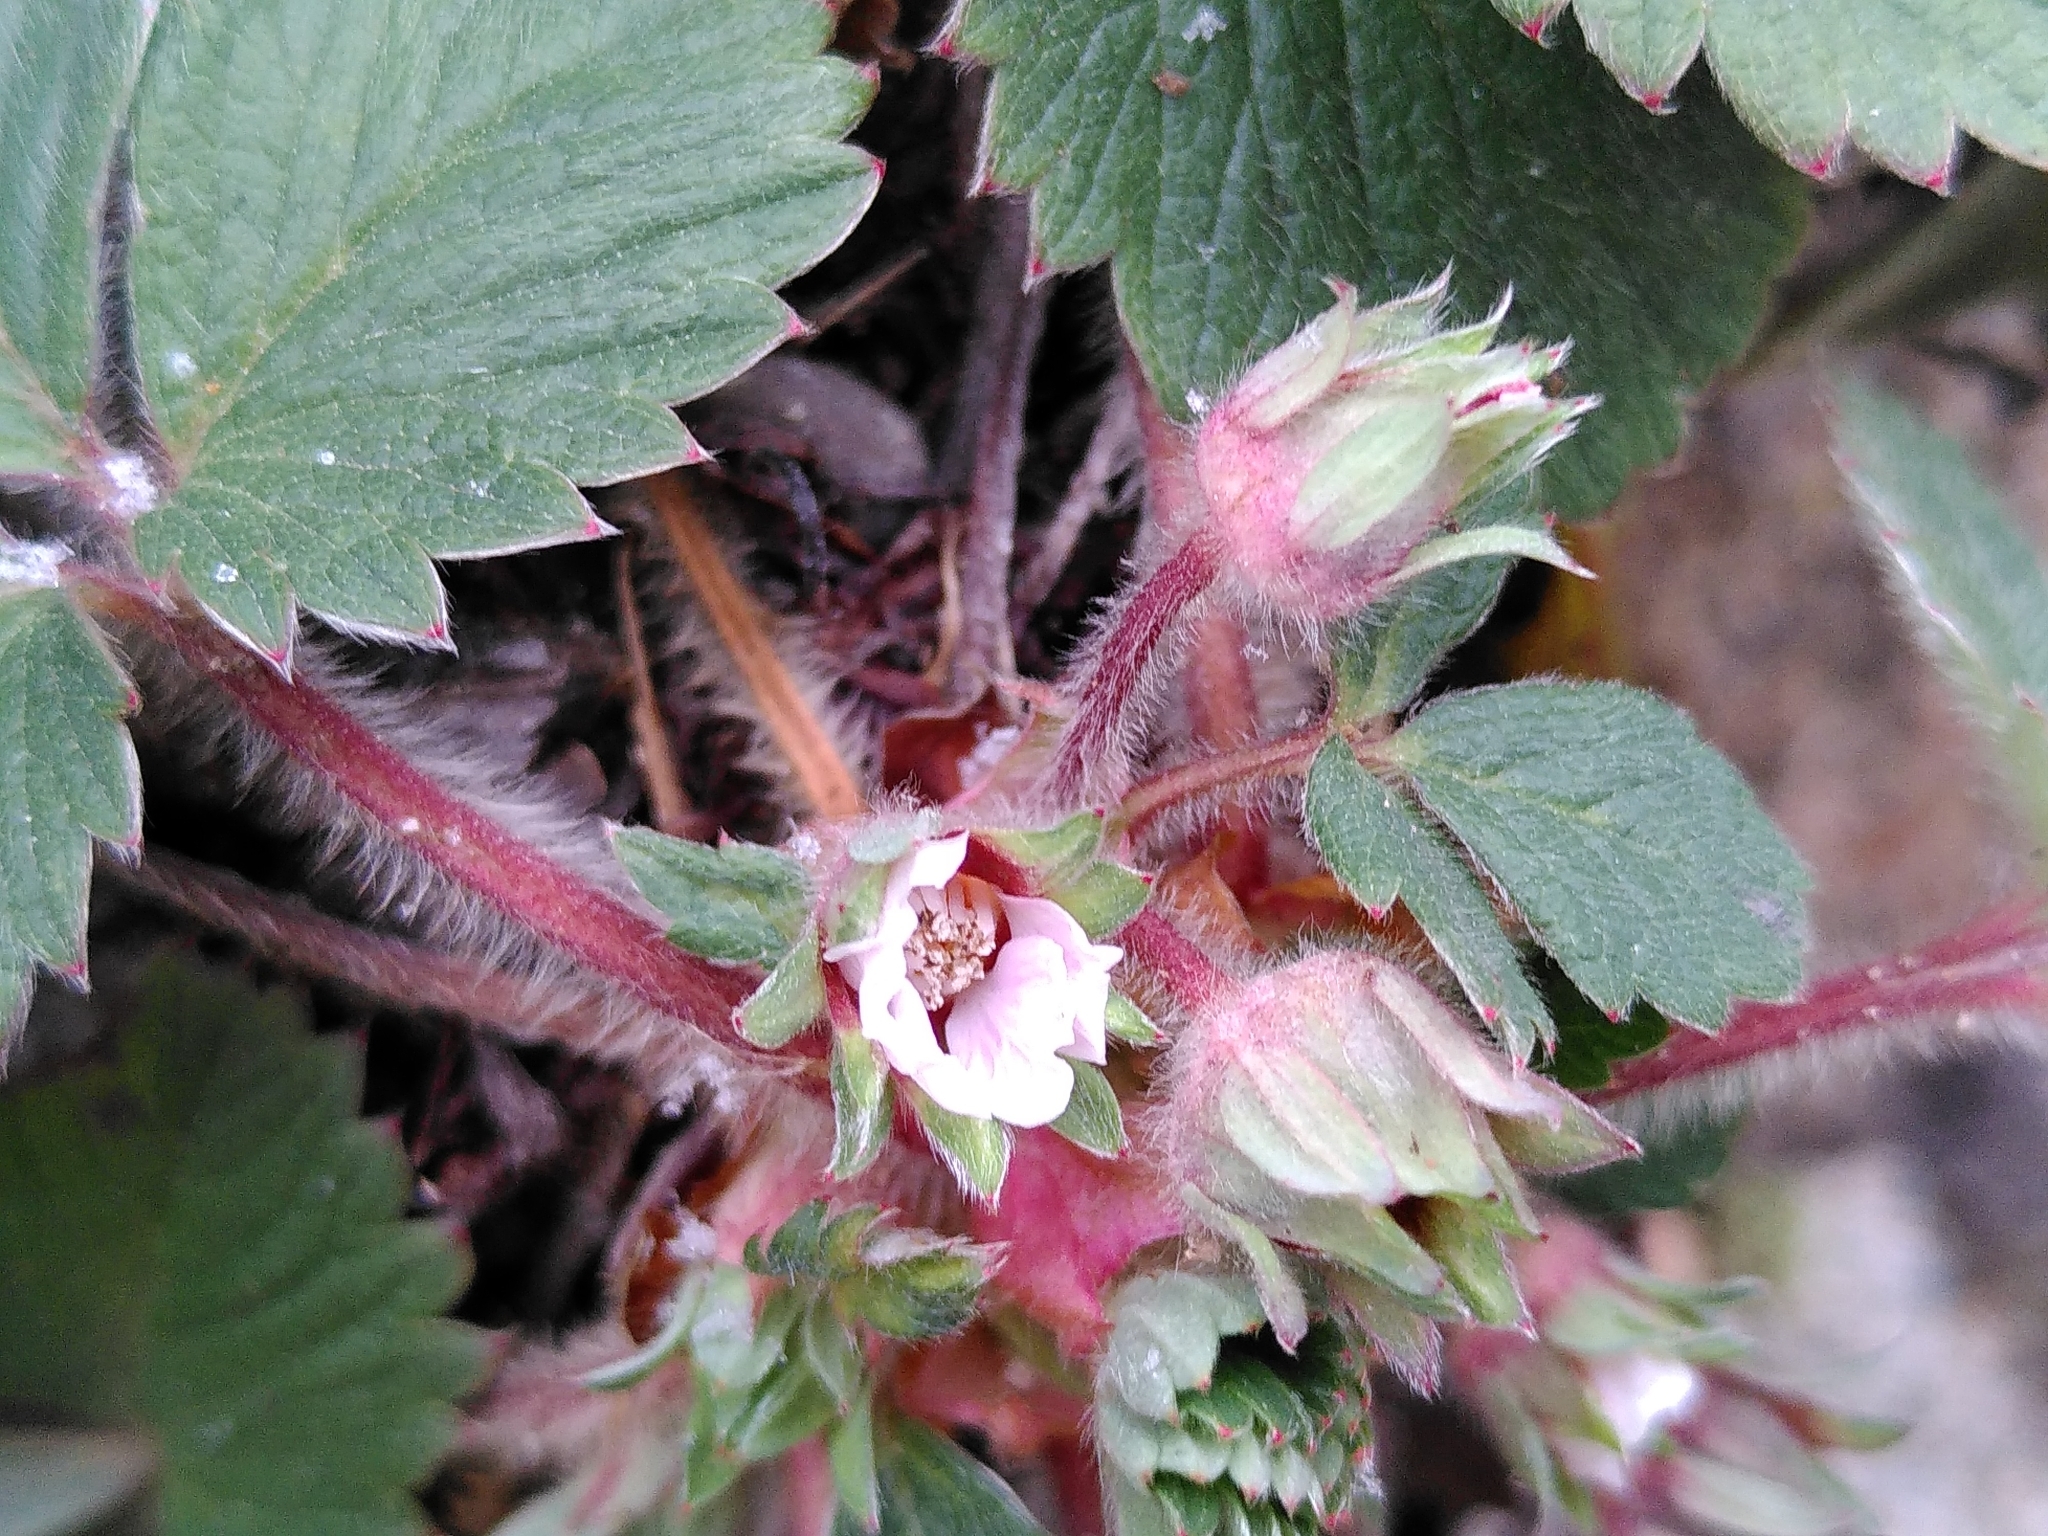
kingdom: Plantae
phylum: Tracheophyta
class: Magnoliopsida
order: Rosales
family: Rosaceae
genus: Potentilla
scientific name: Potentilla micrantha
